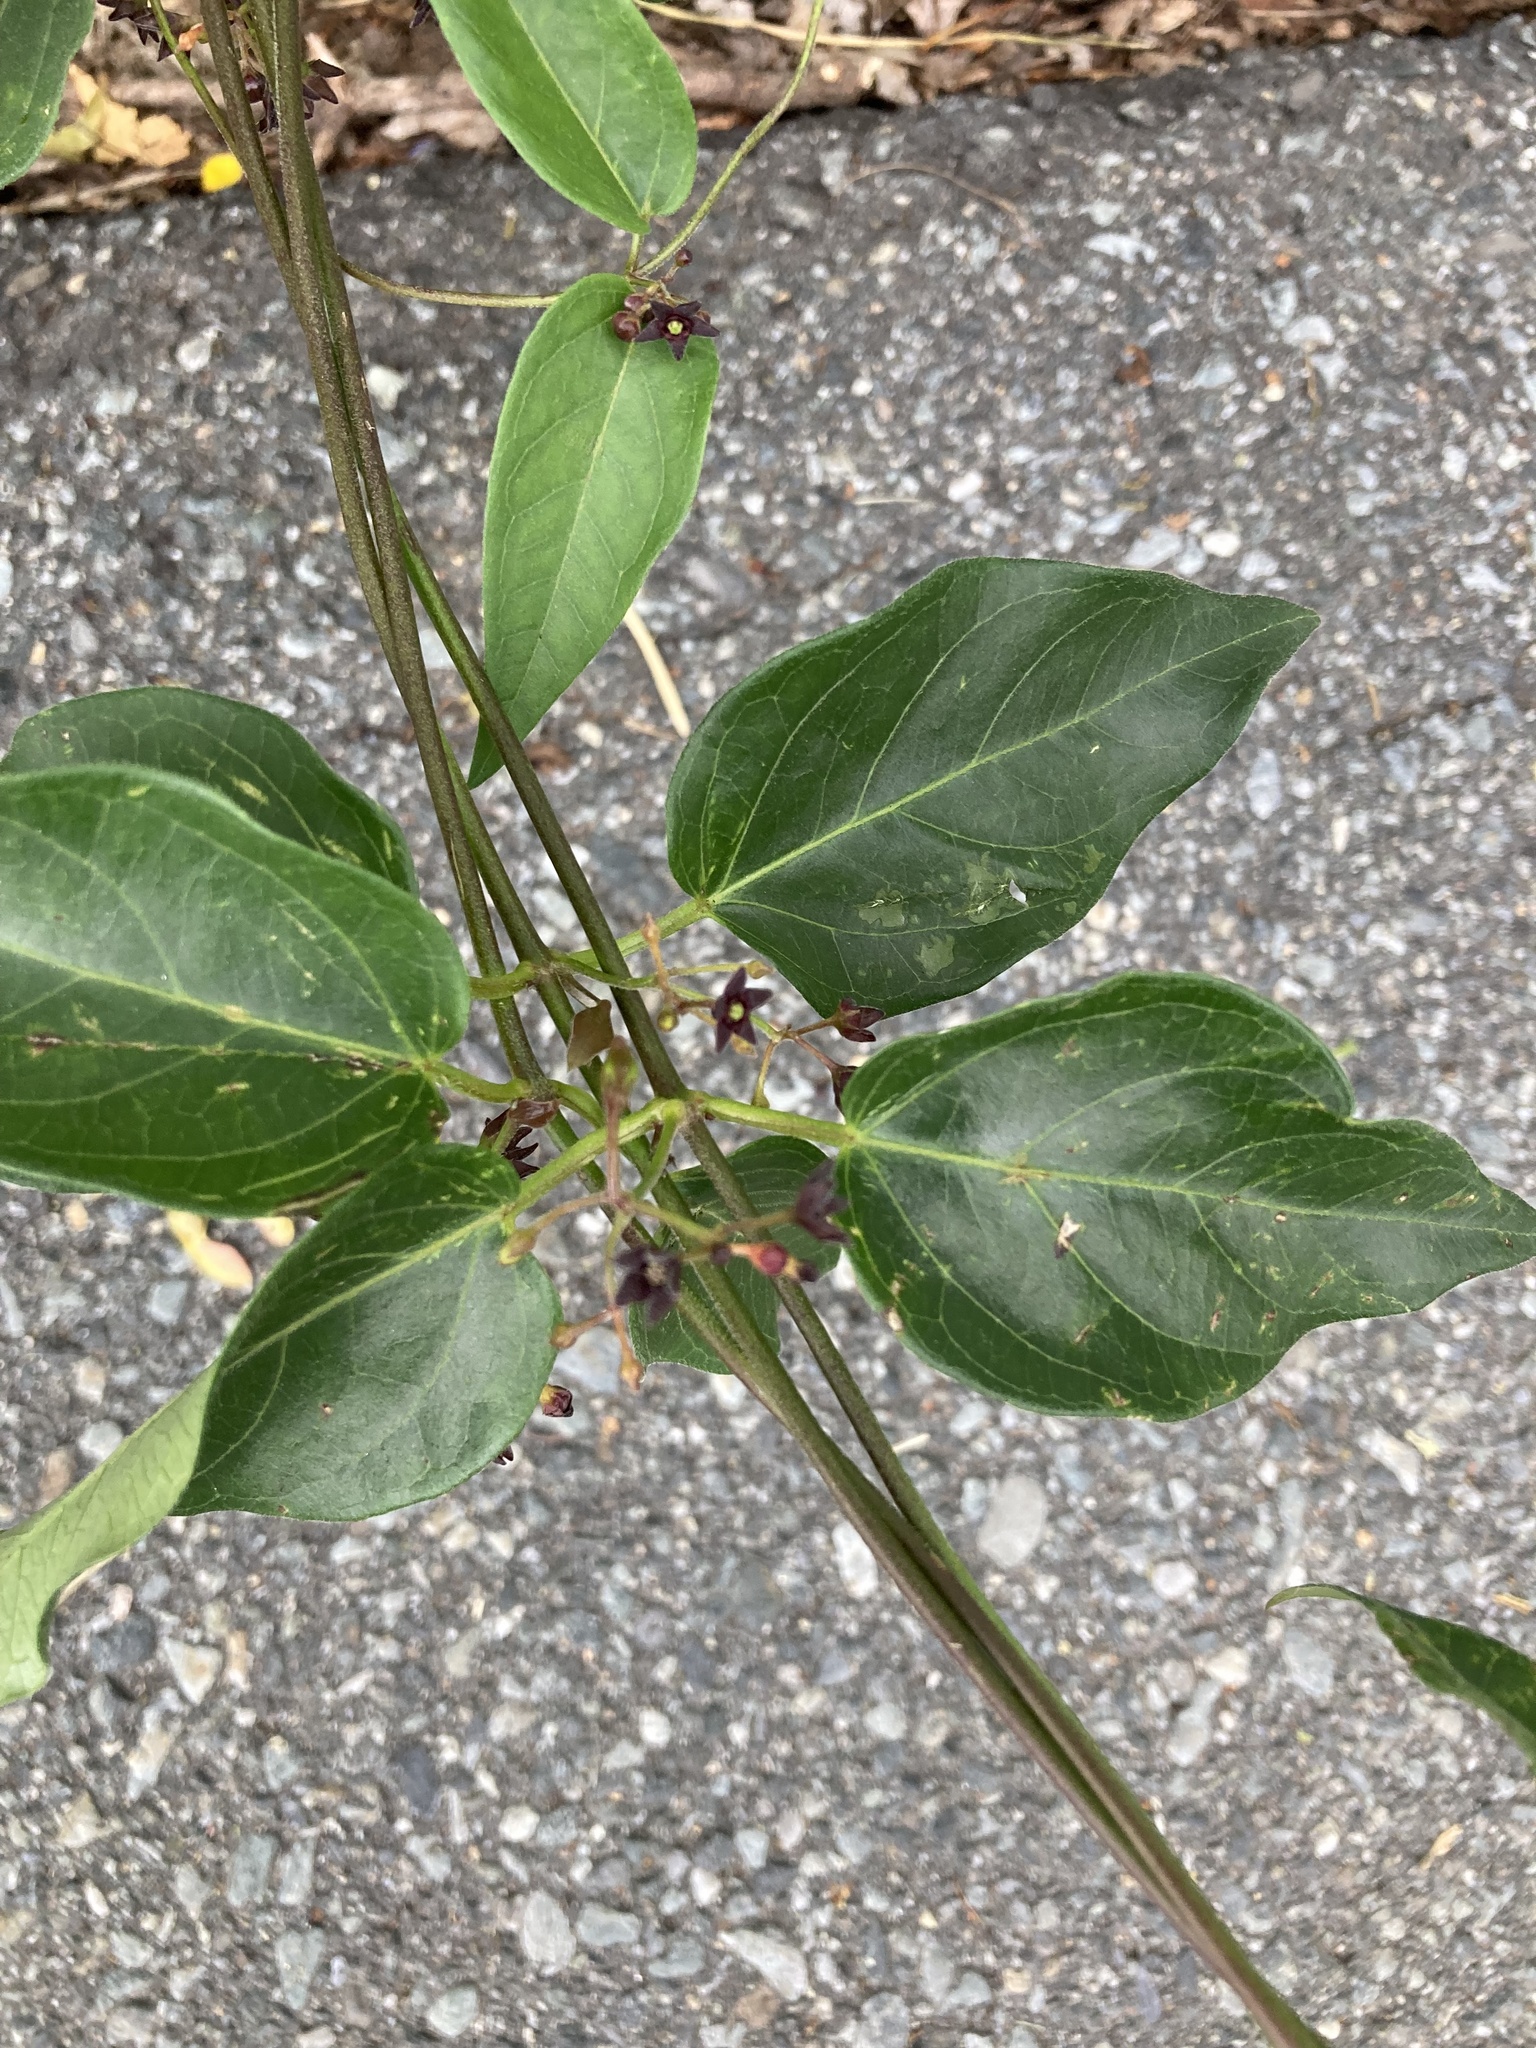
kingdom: Plantae
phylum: Tracheophyta
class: Magnoliopsida
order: Gentianales
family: Apocynaceae
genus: Vincetoxicum
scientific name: Vincetoxicum nigrum
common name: Black swallow-wort
